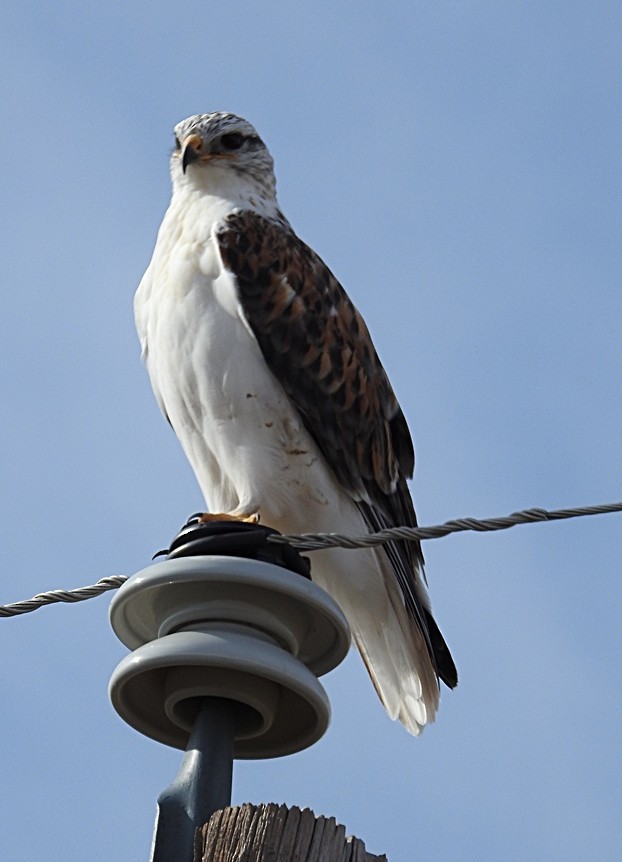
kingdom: Animalia
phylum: Chordata
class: Aves
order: Accipitriformes
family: Accipitridae
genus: Buteo
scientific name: Buteo regalis
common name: Ferruginous hawk
